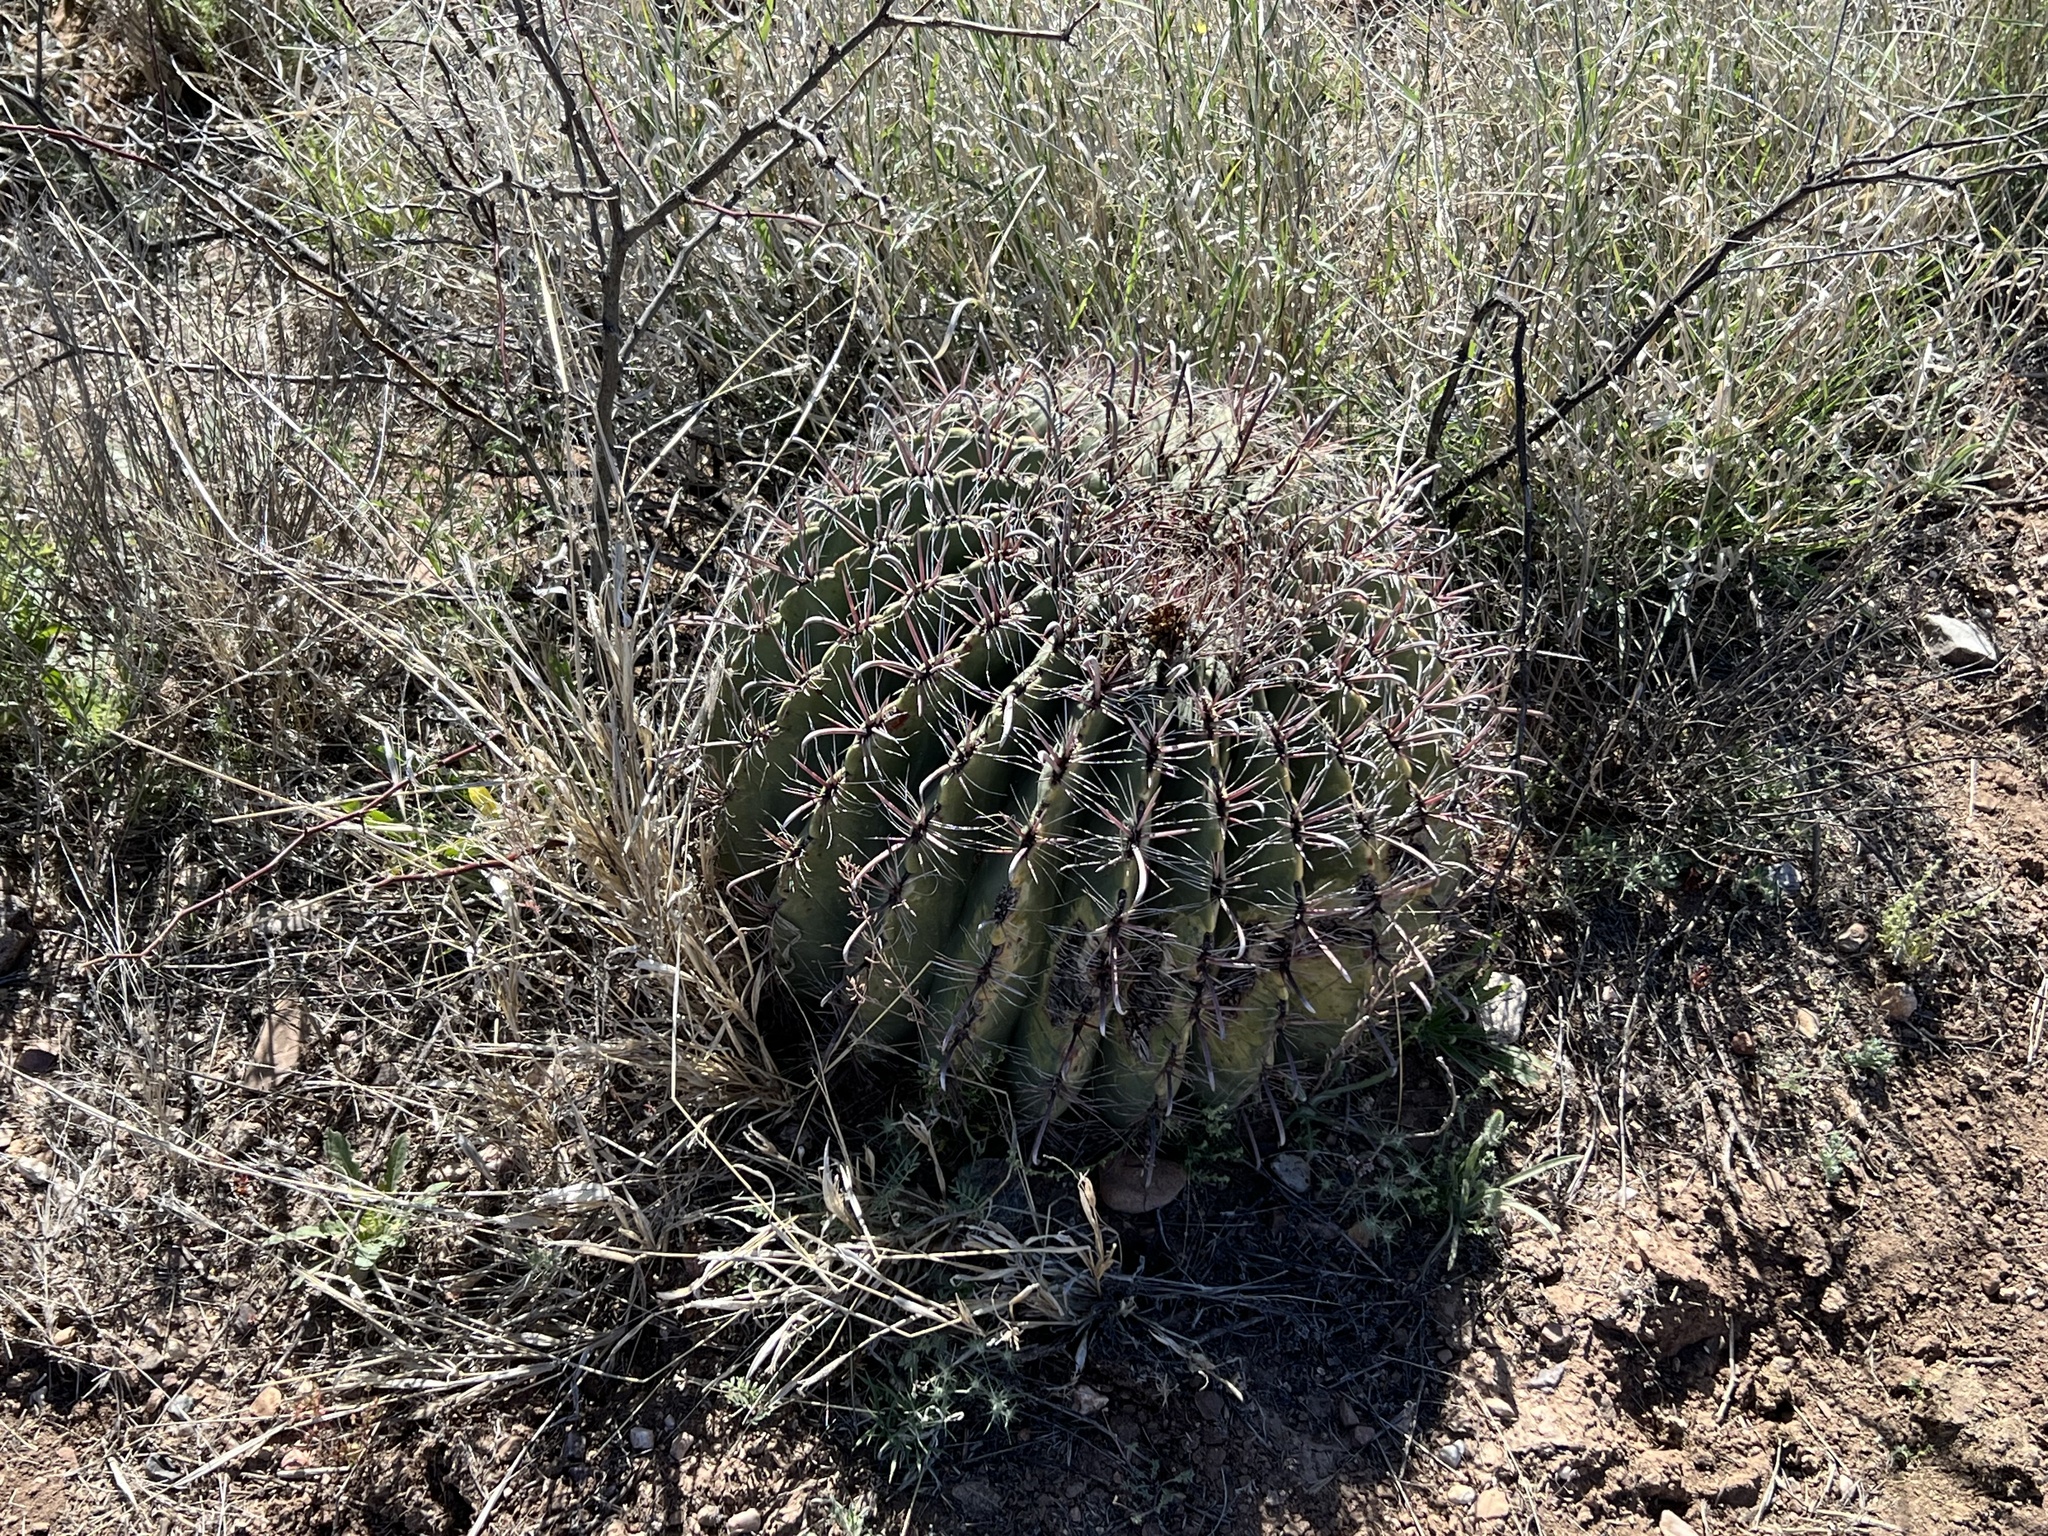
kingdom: Plantae
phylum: Tracheophyta
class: Magnoliopsida
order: Caryophyllales
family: Cactaceae
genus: Ferocactus
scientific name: Ferocactus wislizeni
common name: Candy barrel cactus
